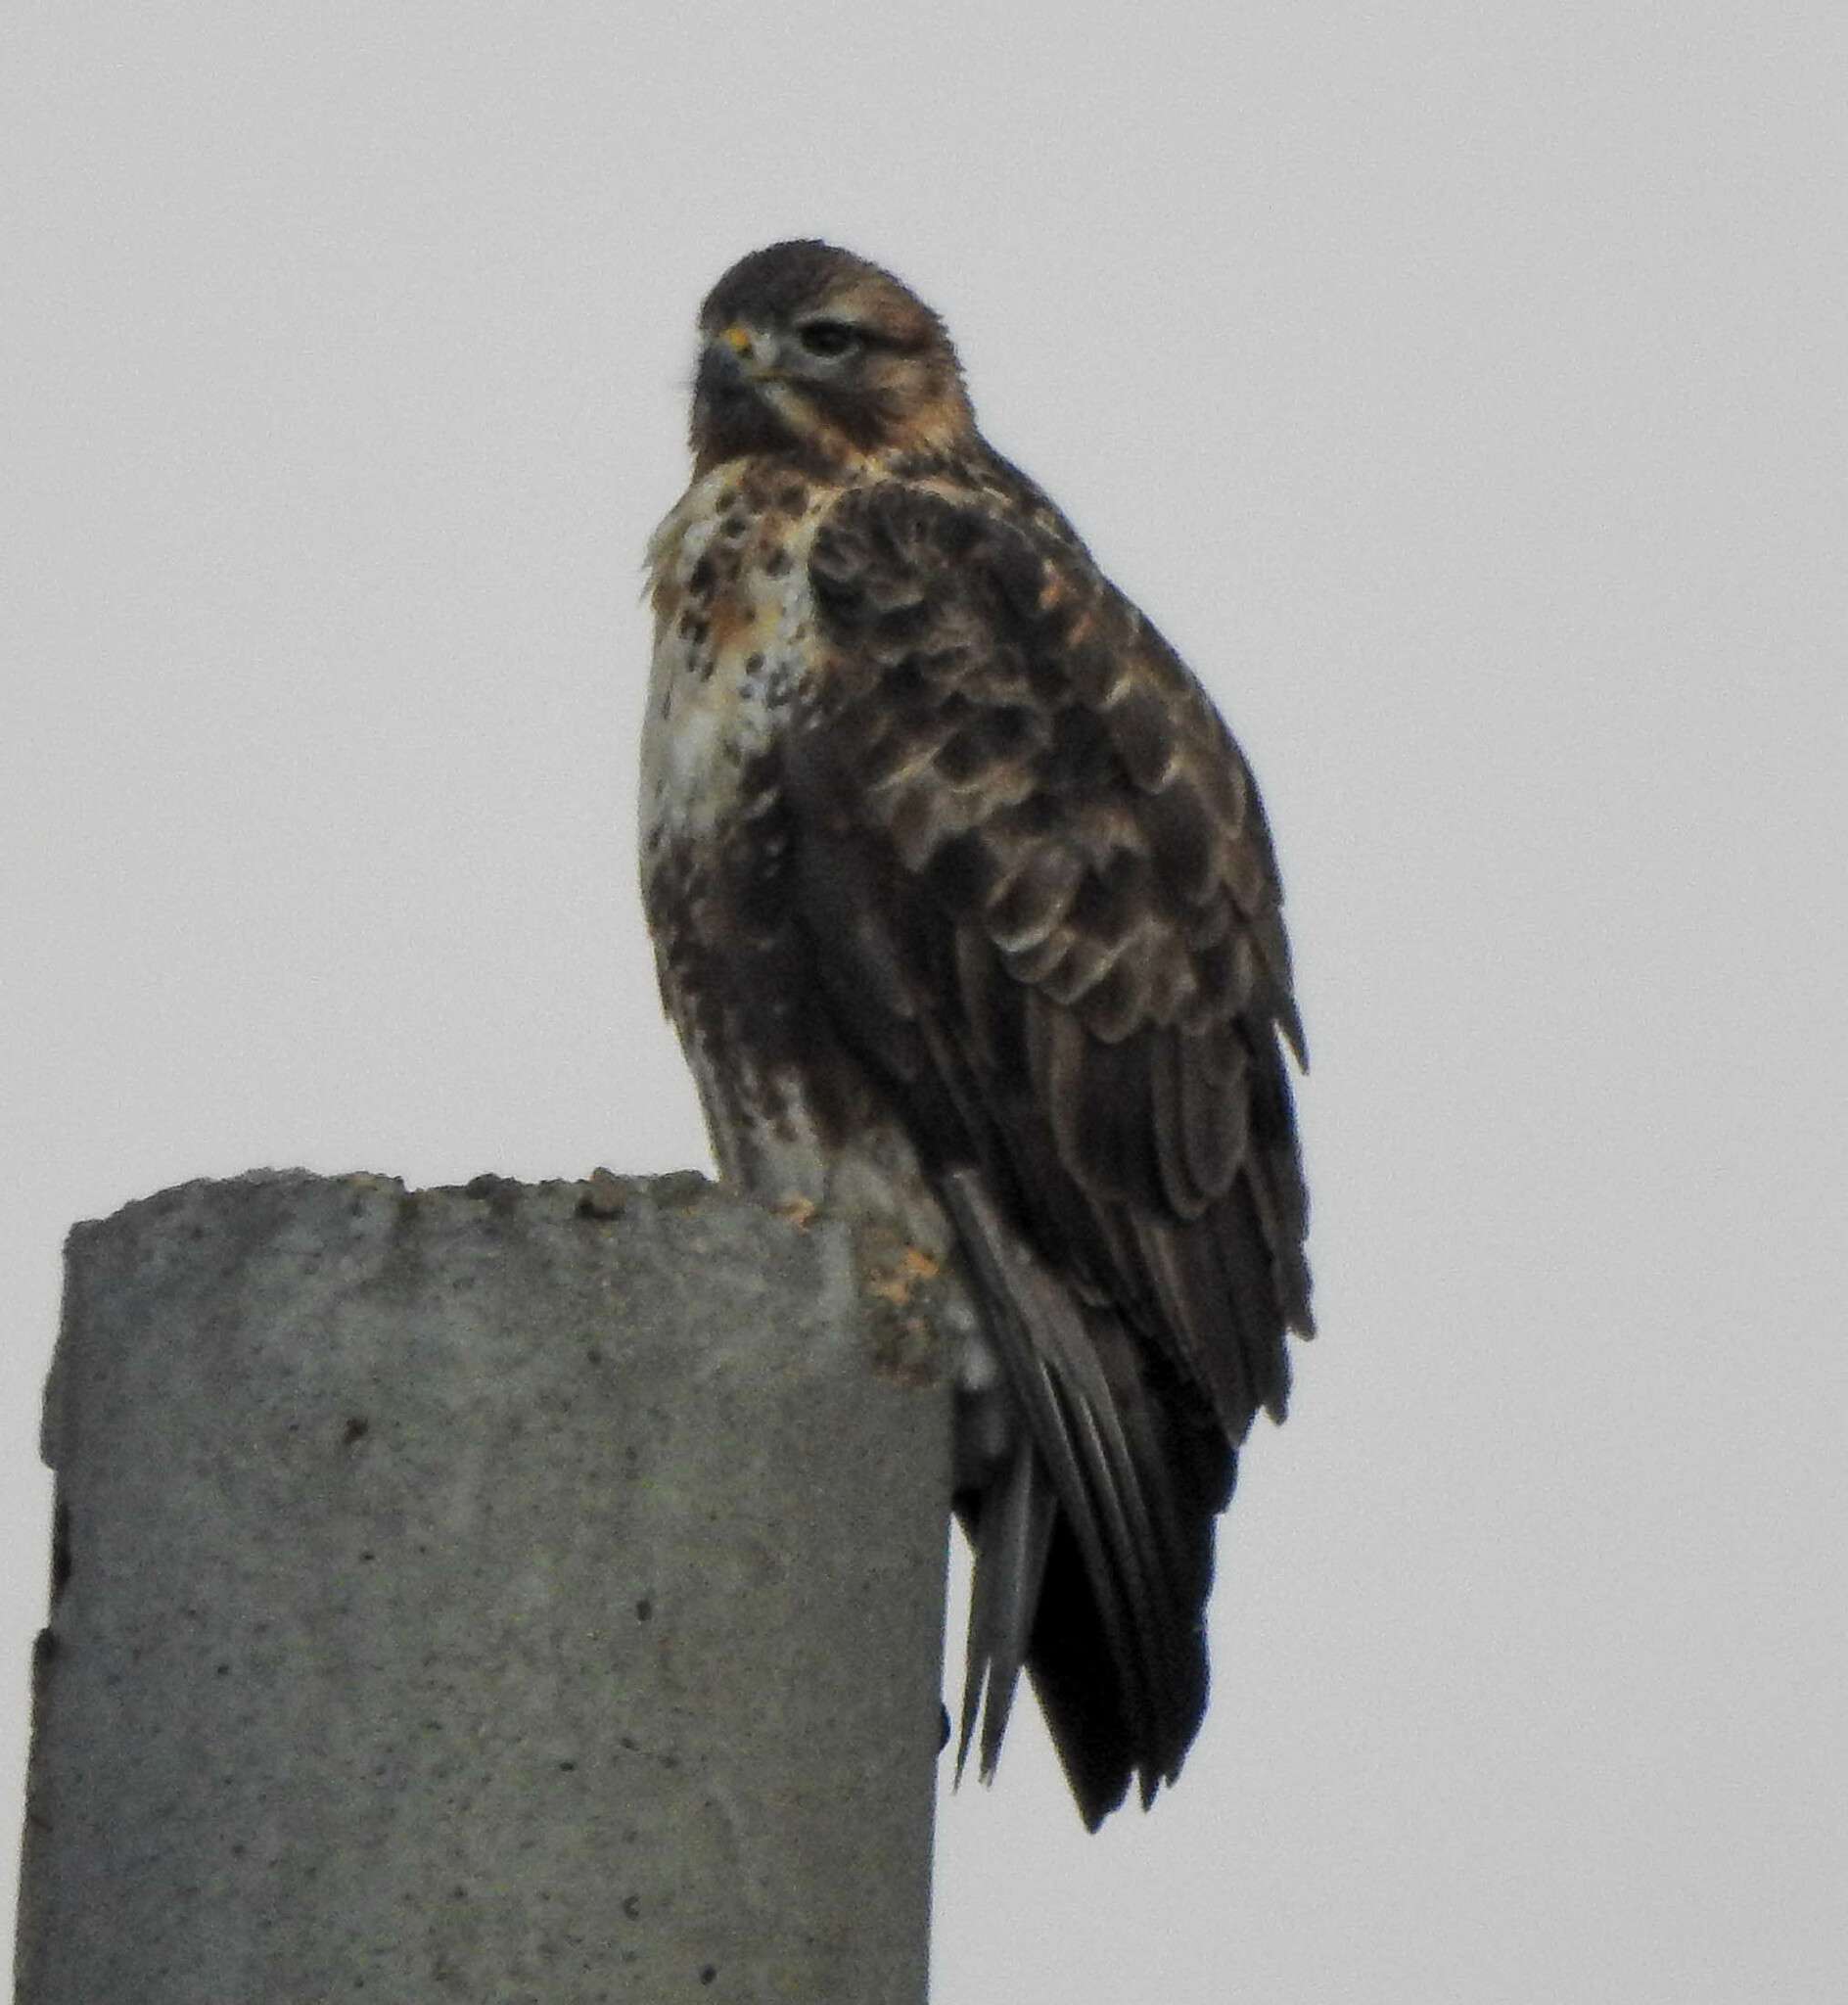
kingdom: Animalia
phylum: Chordata
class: Aves
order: Accipitriformes
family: Accipitridae
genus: Buteo
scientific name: Buteo hemilasius
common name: Upland buzzard
